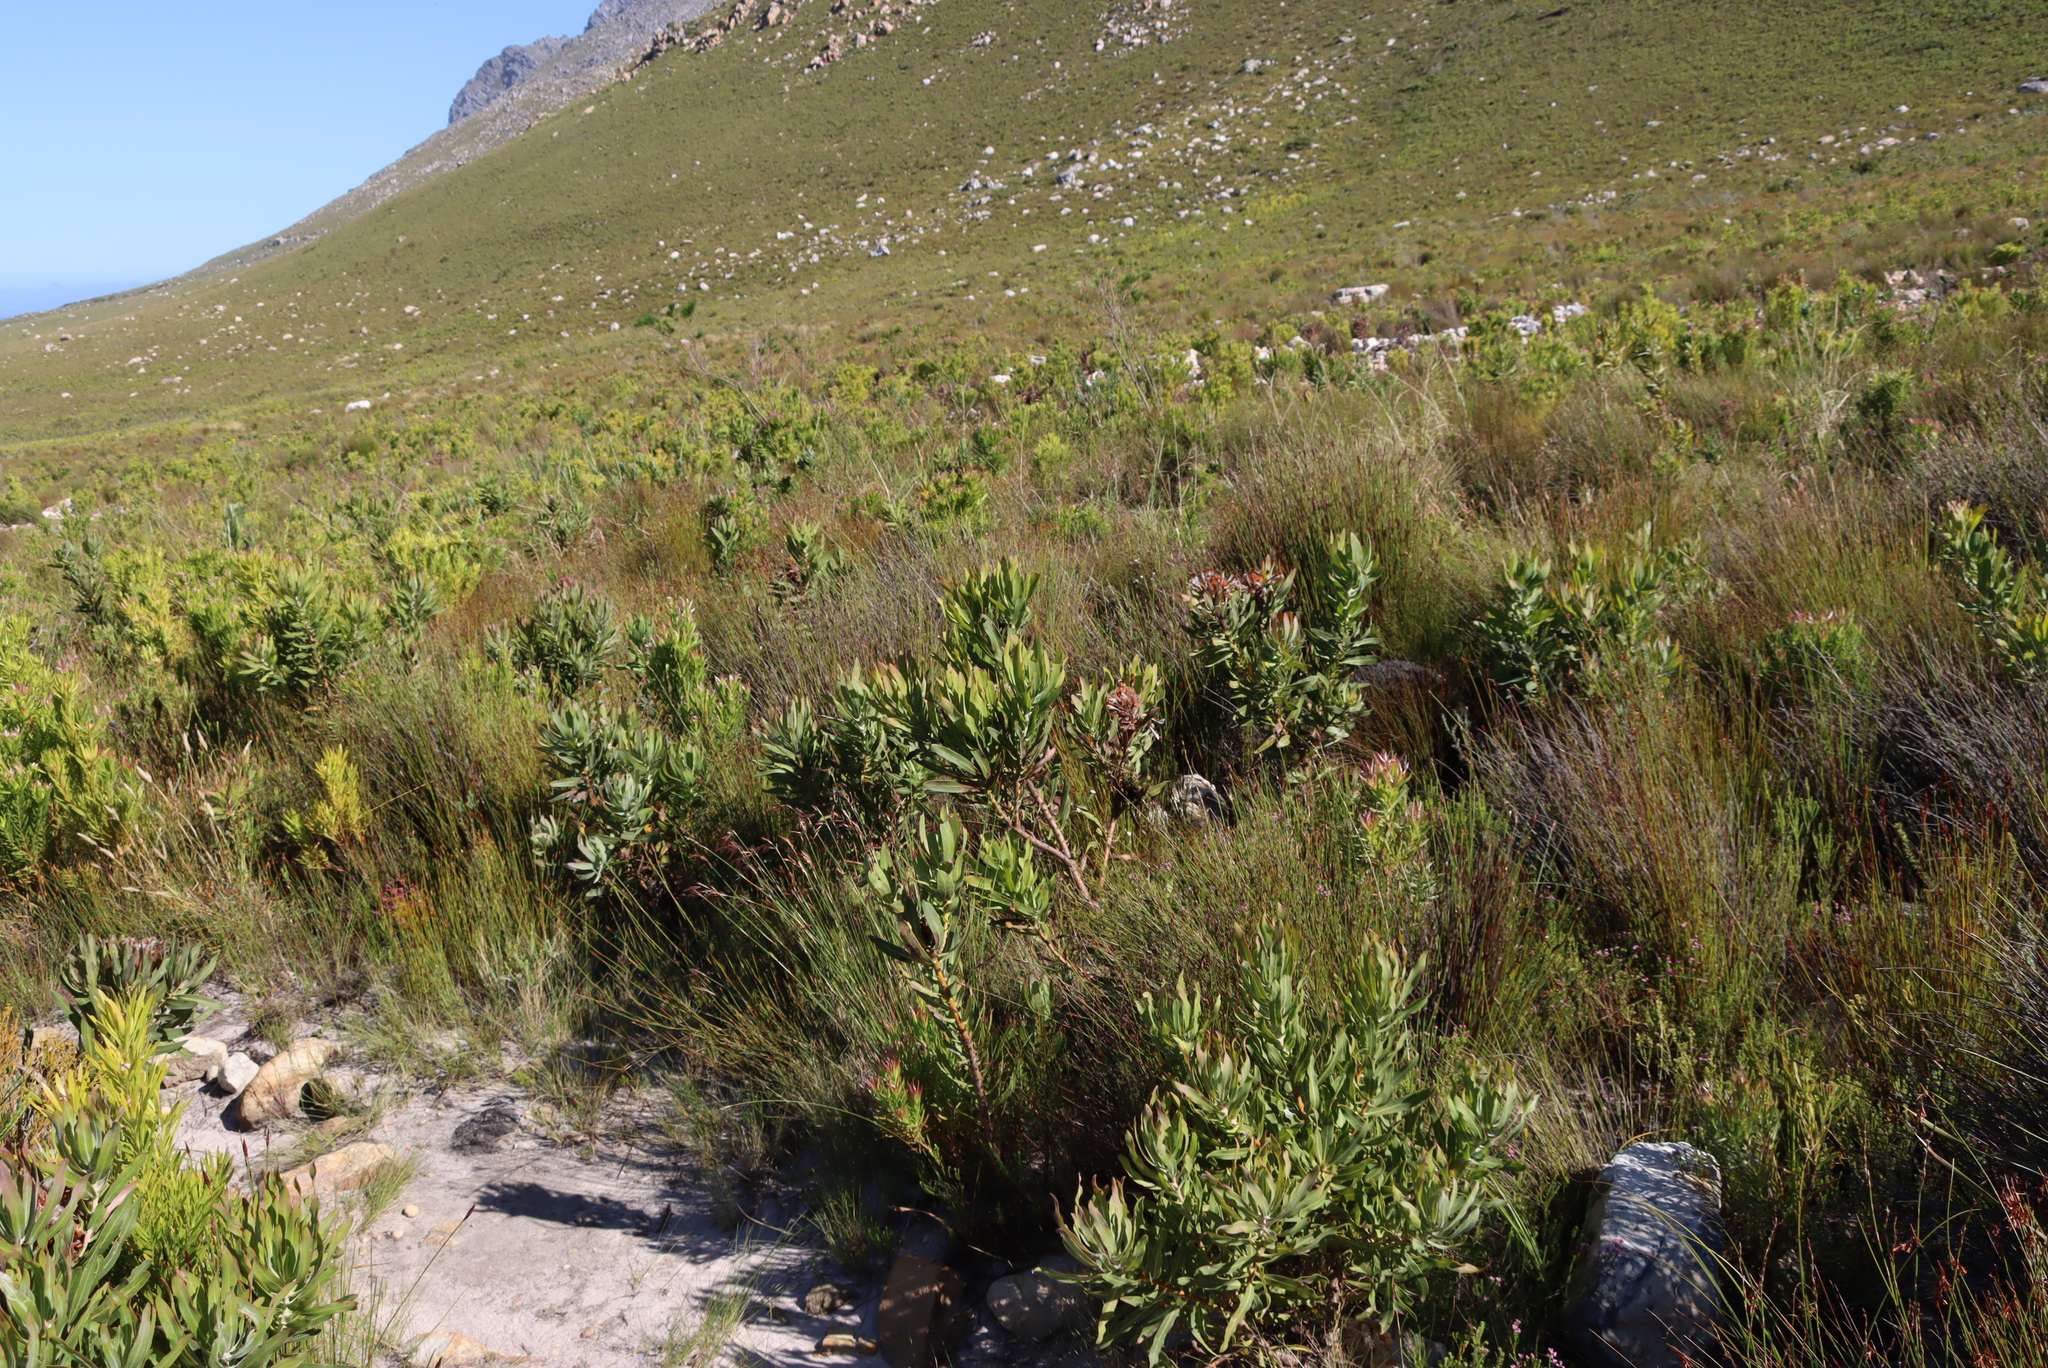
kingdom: Plantae
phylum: Tracheophyta
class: Magnoliopsida
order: Proteales
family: Proteaceae
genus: Protea
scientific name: Protea laurifolia
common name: Grey-leaf sugarbsh
